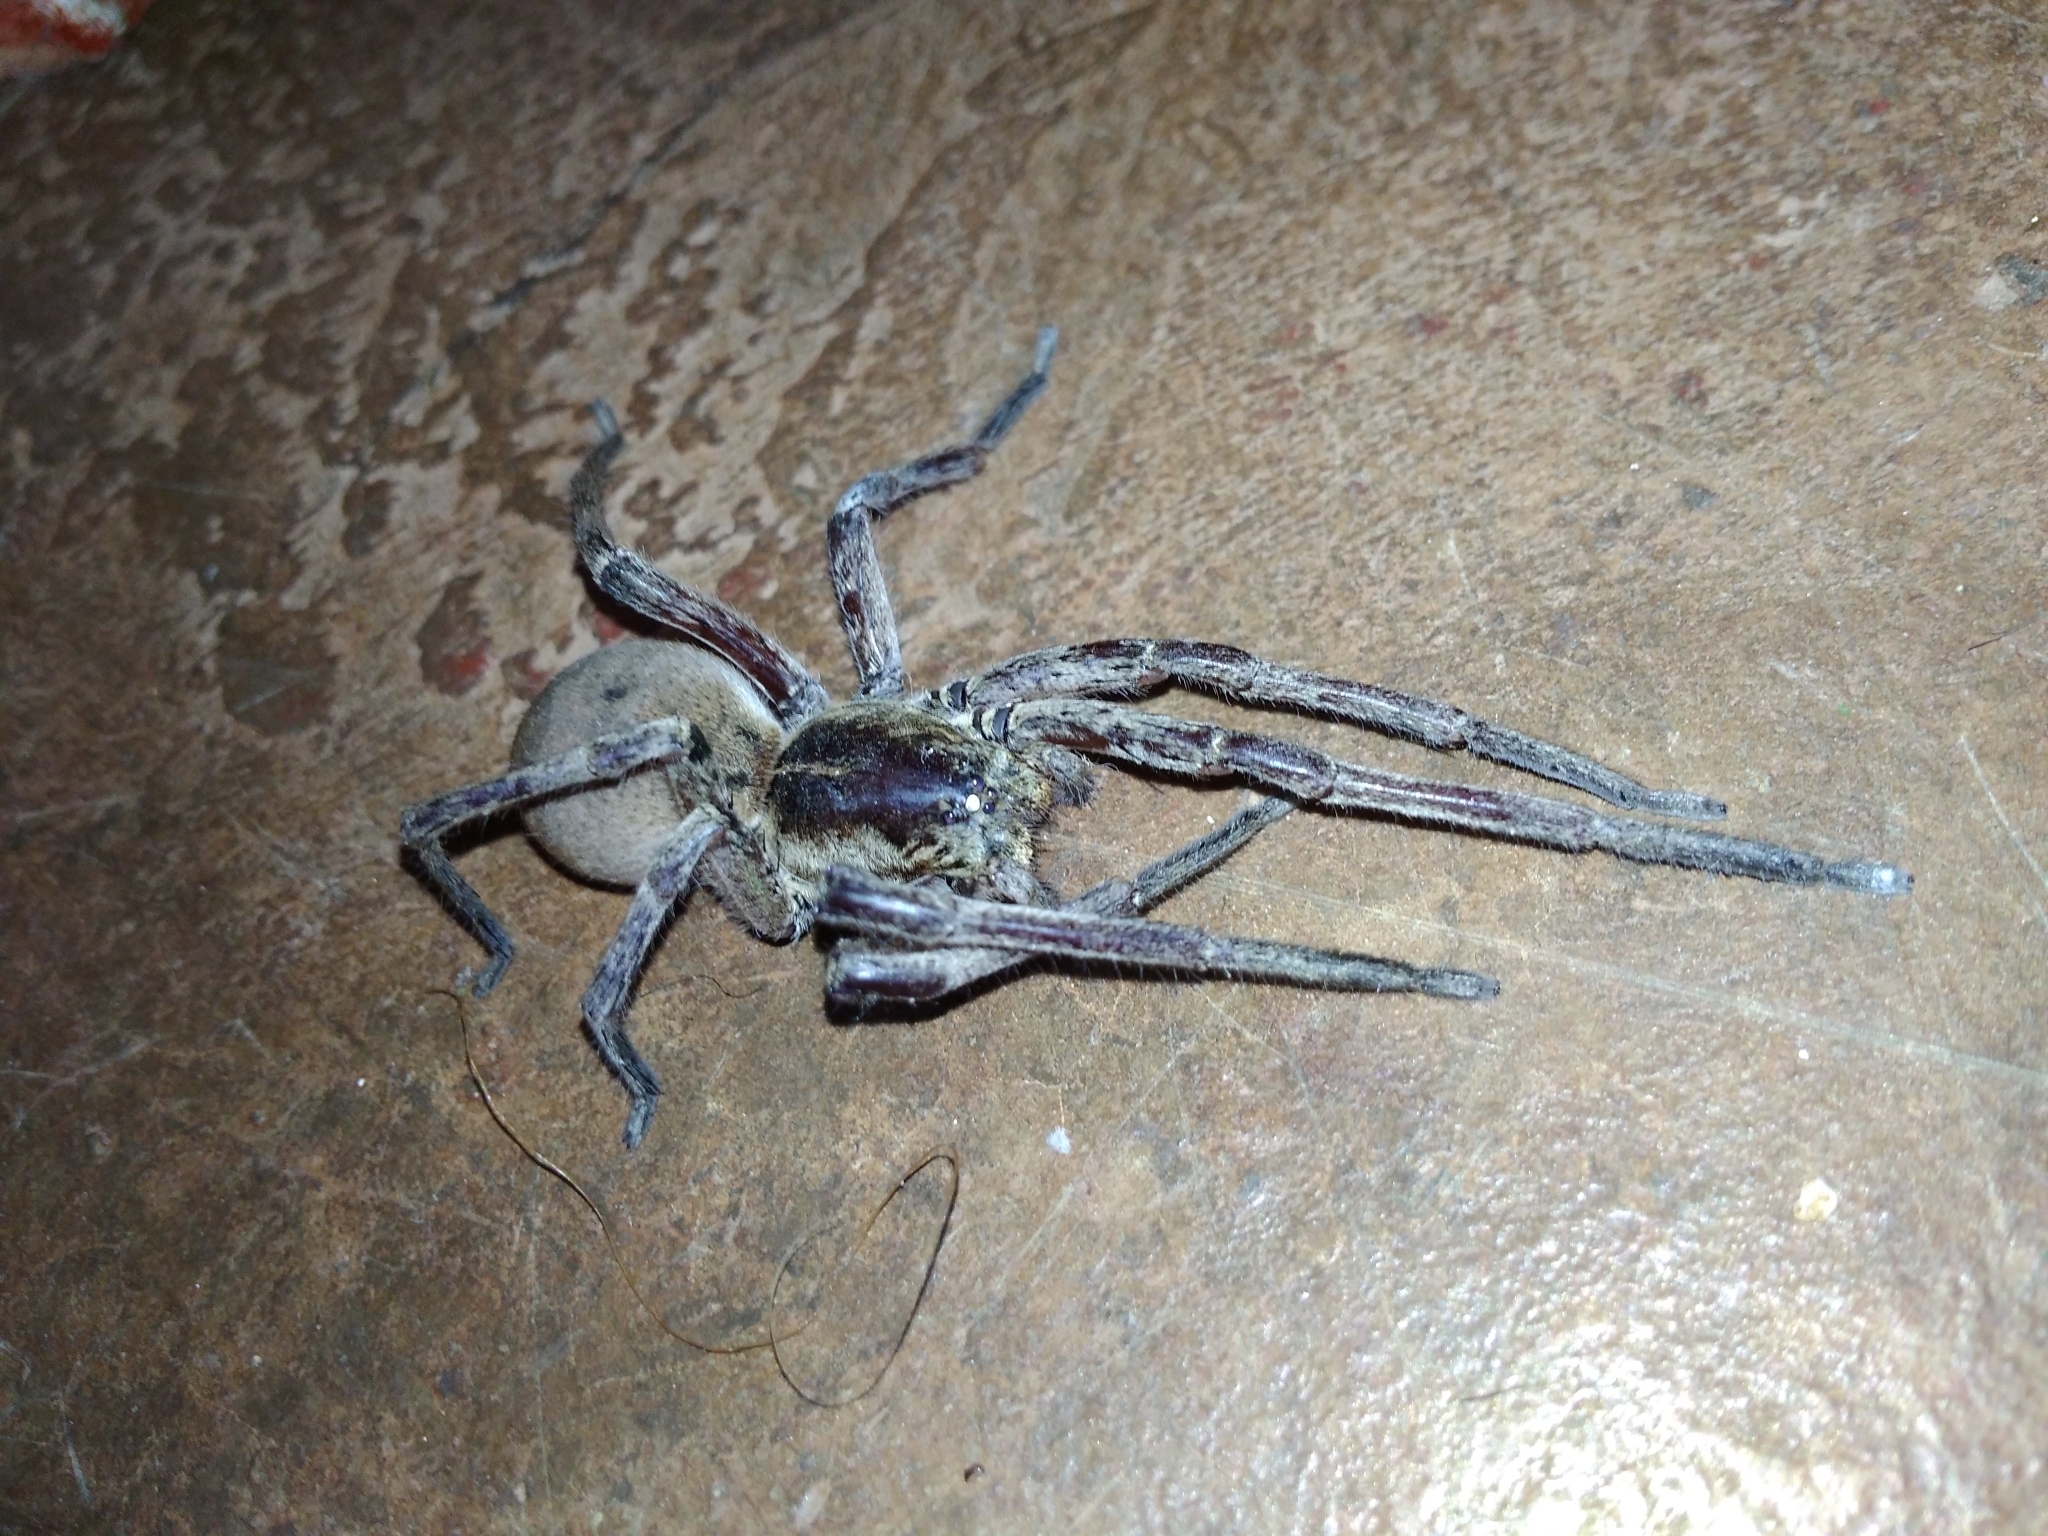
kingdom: Animalia
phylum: Arthropoda
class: Arachnida
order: Araneae
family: Ctenidae
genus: Afroneutria
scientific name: Afroneutria erythrochelis
